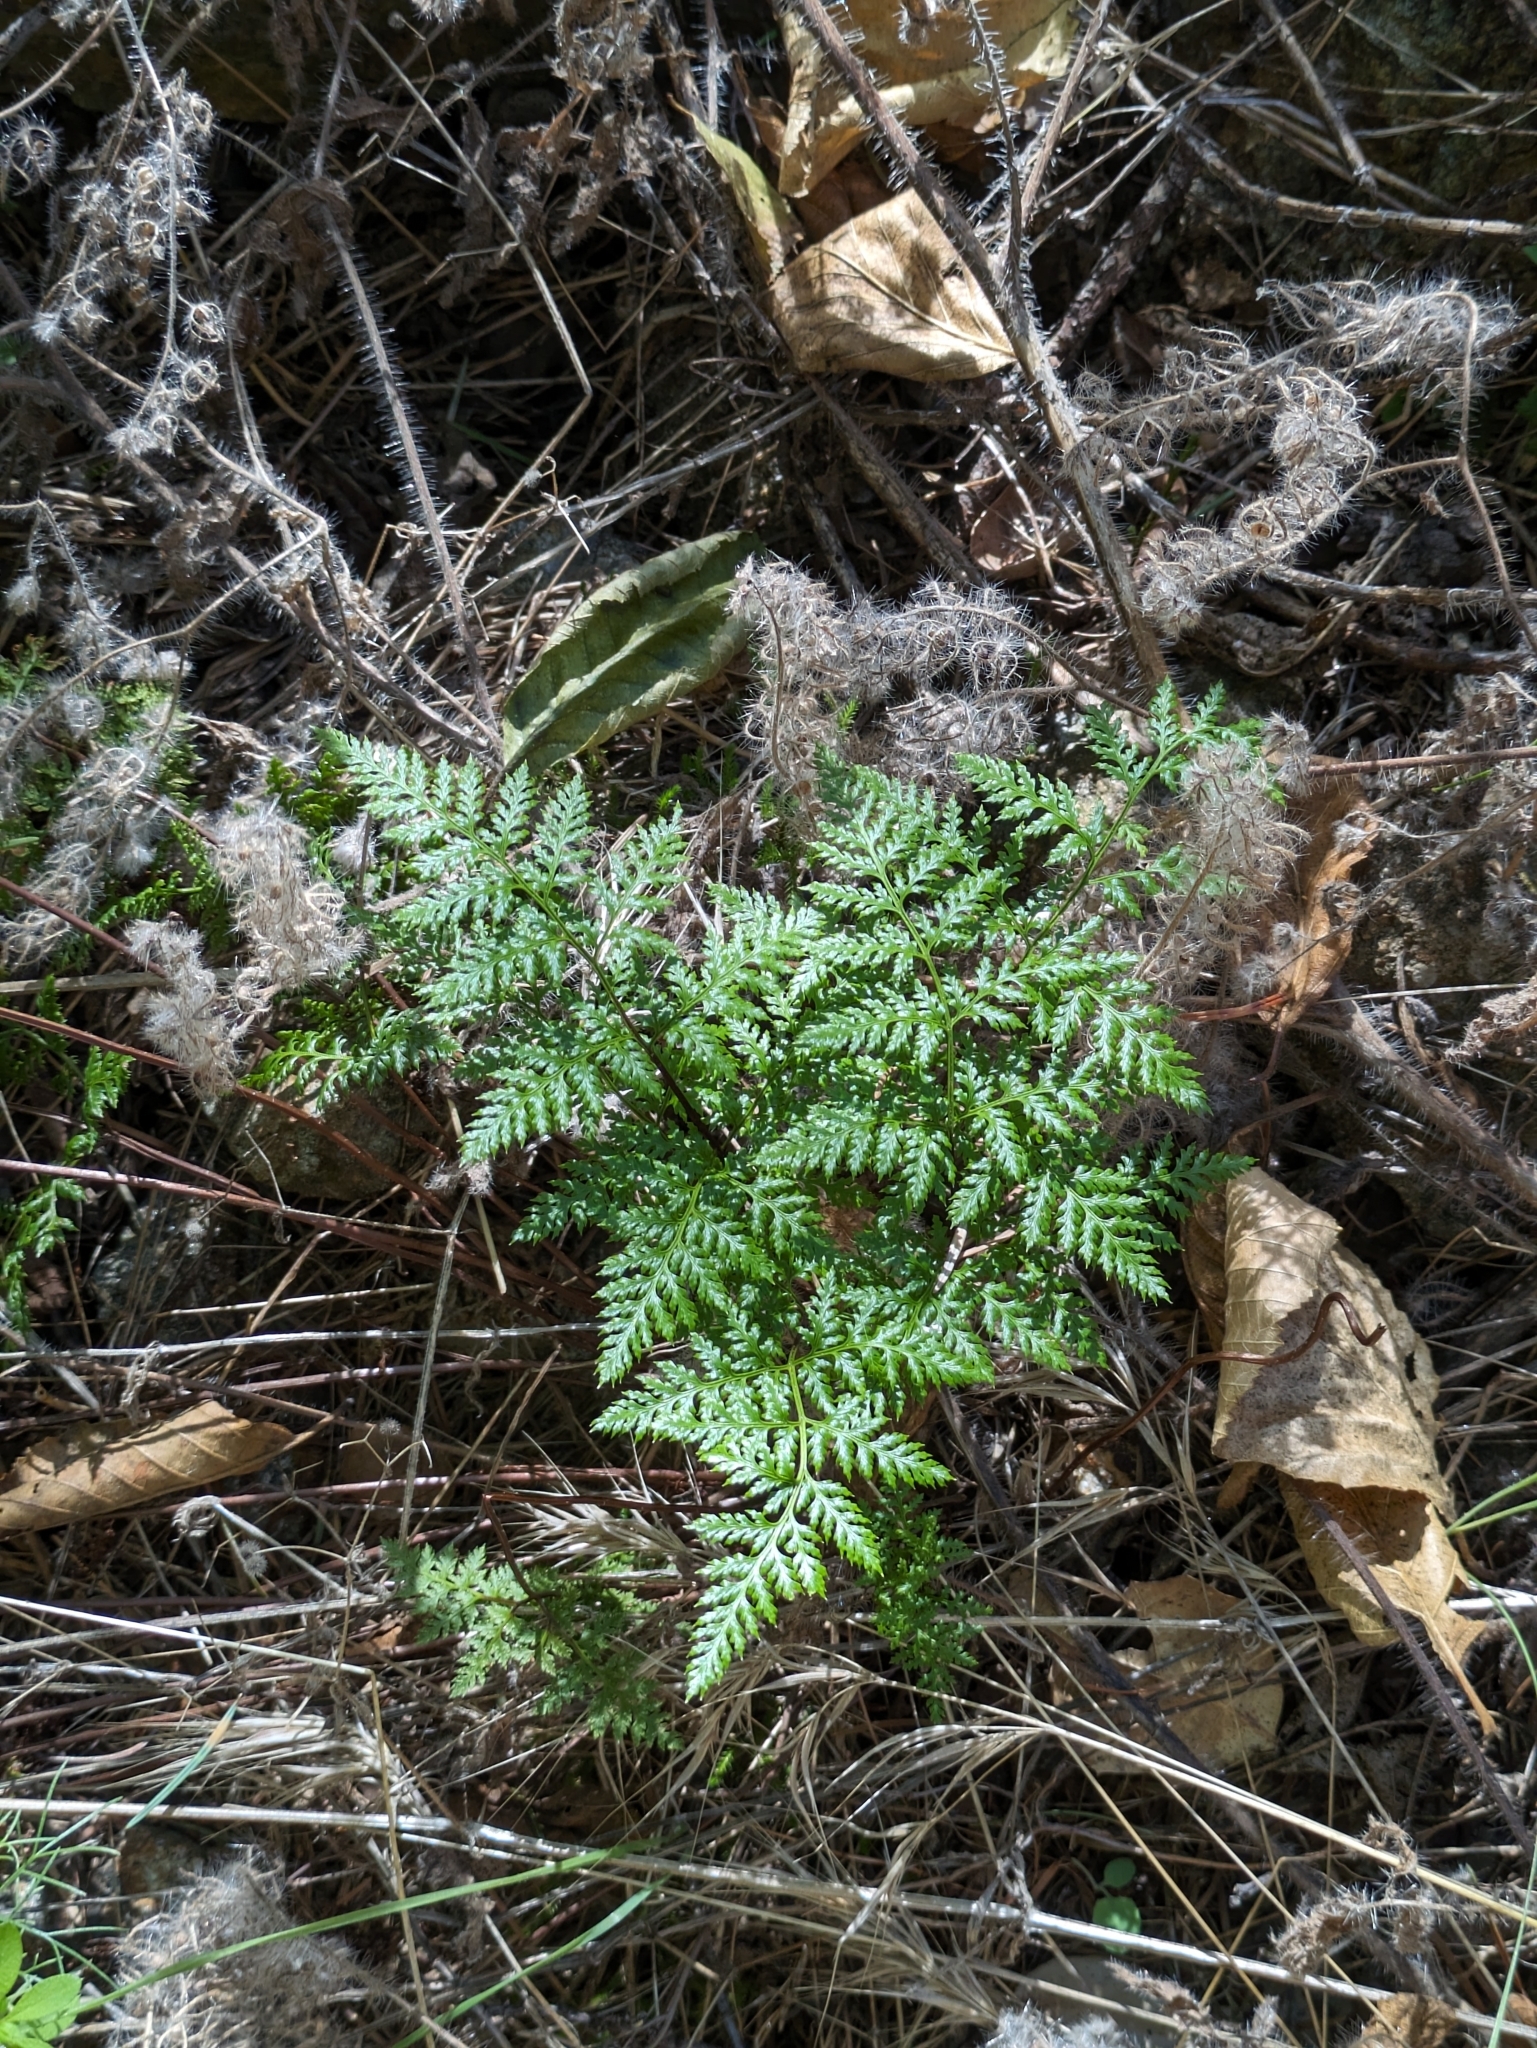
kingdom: Plantae
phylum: Tracheophyta
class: Polypodiopsida
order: Polypodiales
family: Pteridaceae
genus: Aspidotis
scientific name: Aspidotis californica
